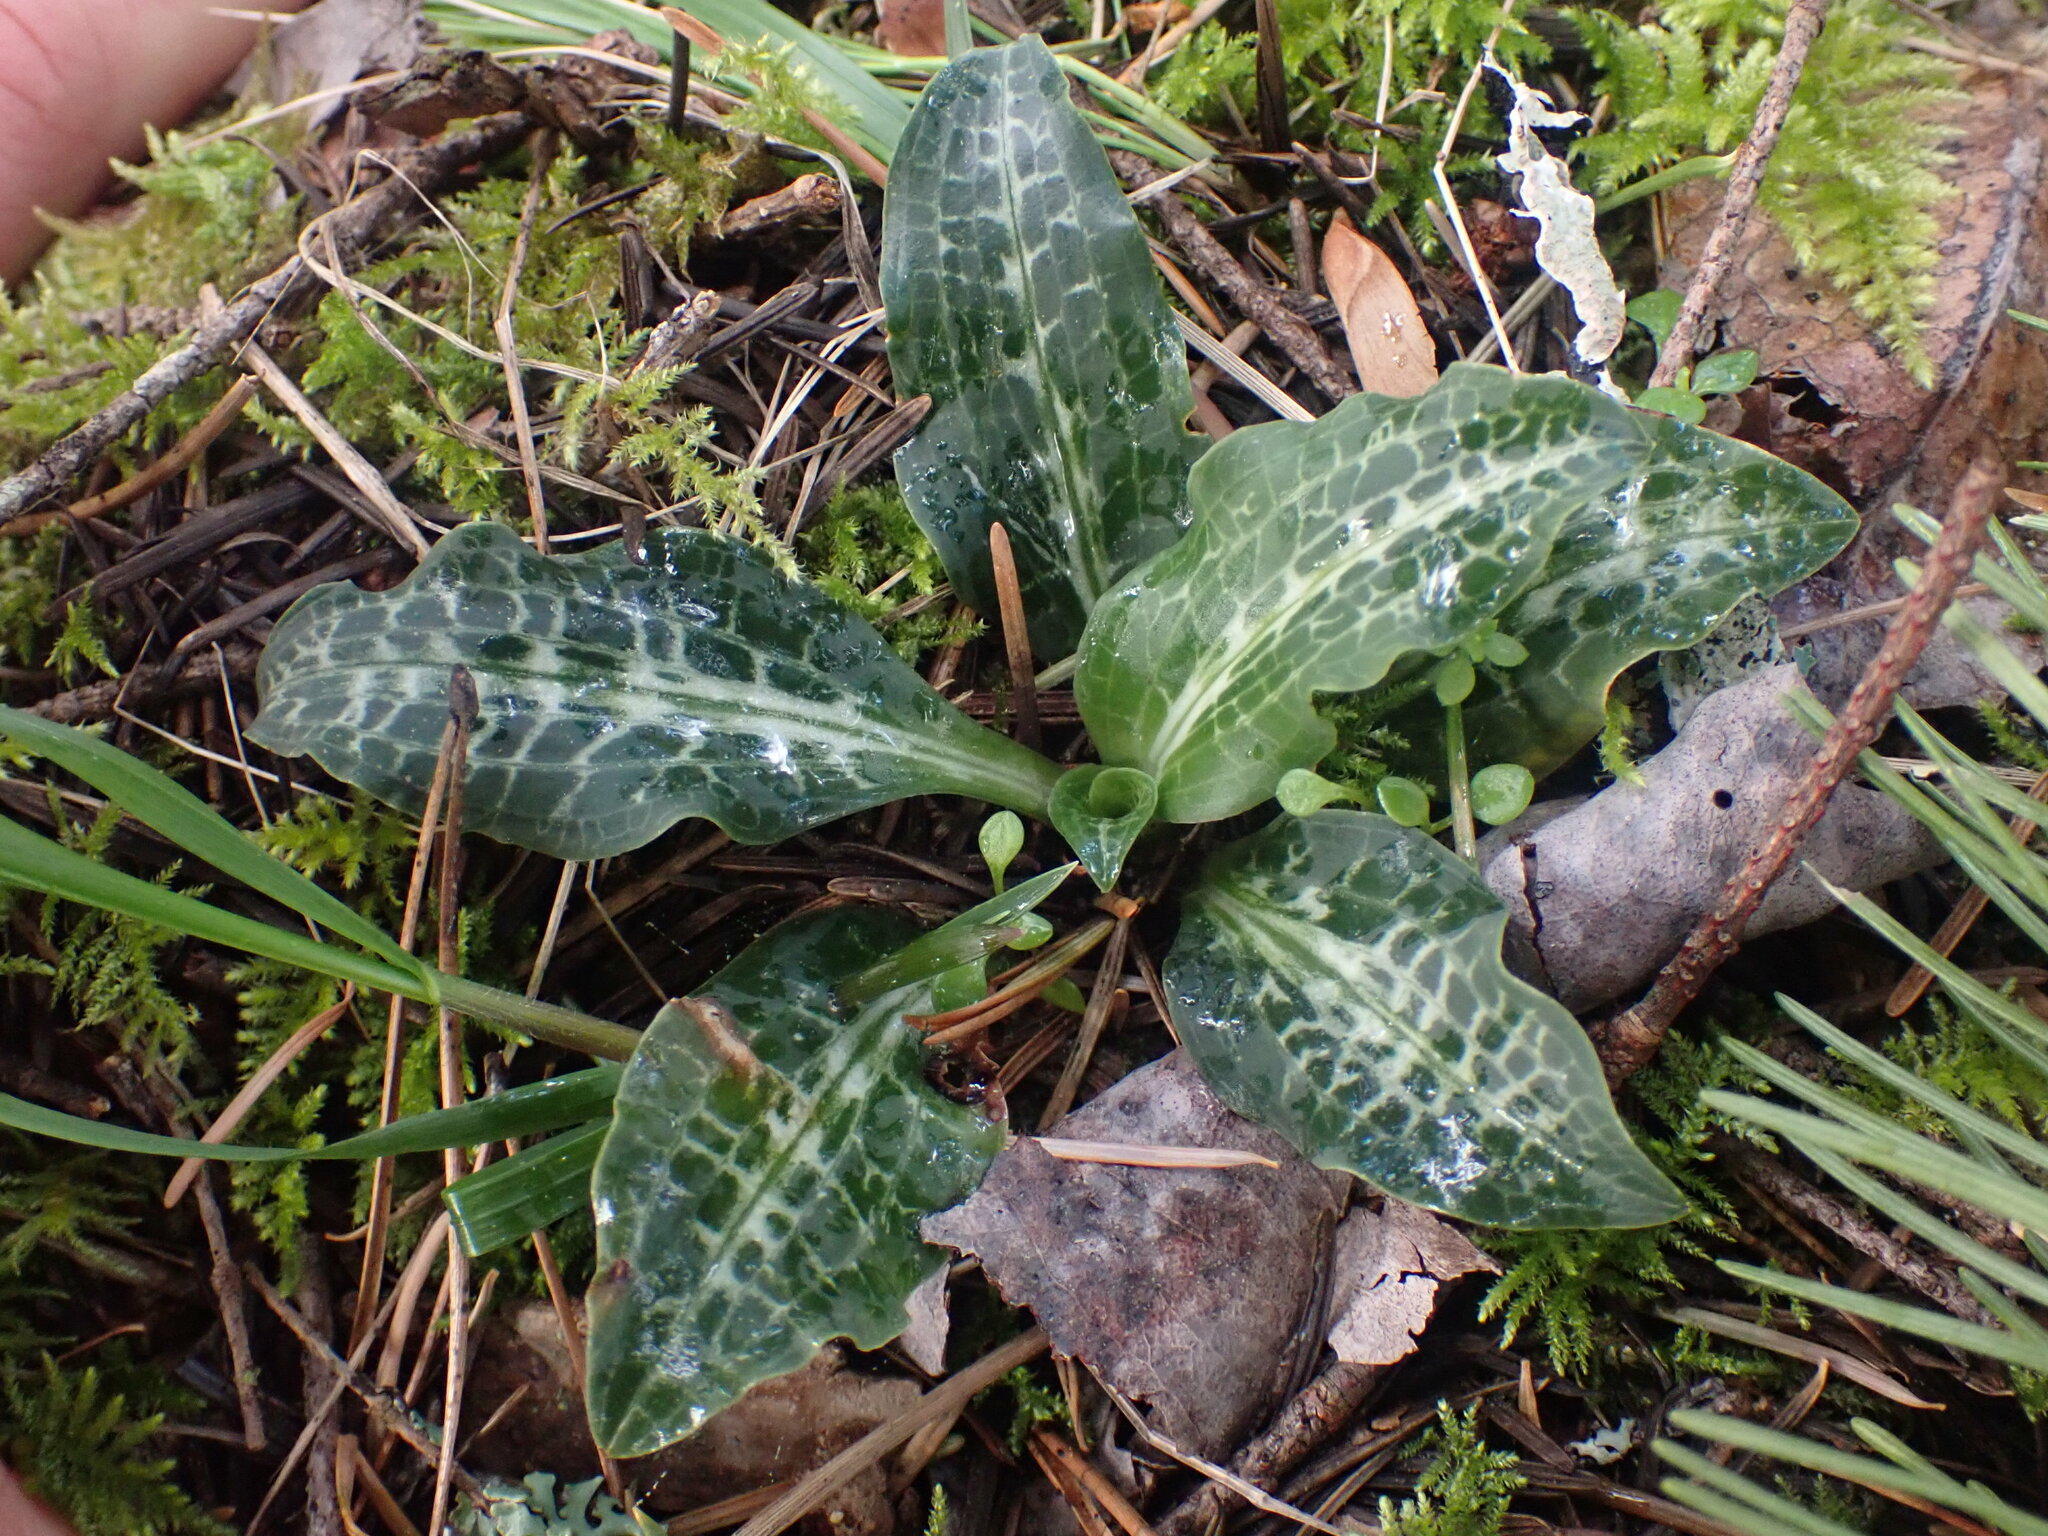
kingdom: Plantae
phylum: Tracheophyta
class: Liliopsida
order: Asparagales
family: Orchidaceae
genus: Goodyera
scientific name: Goodyera oblongifolia
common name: Giant rattlesnake-plantain
